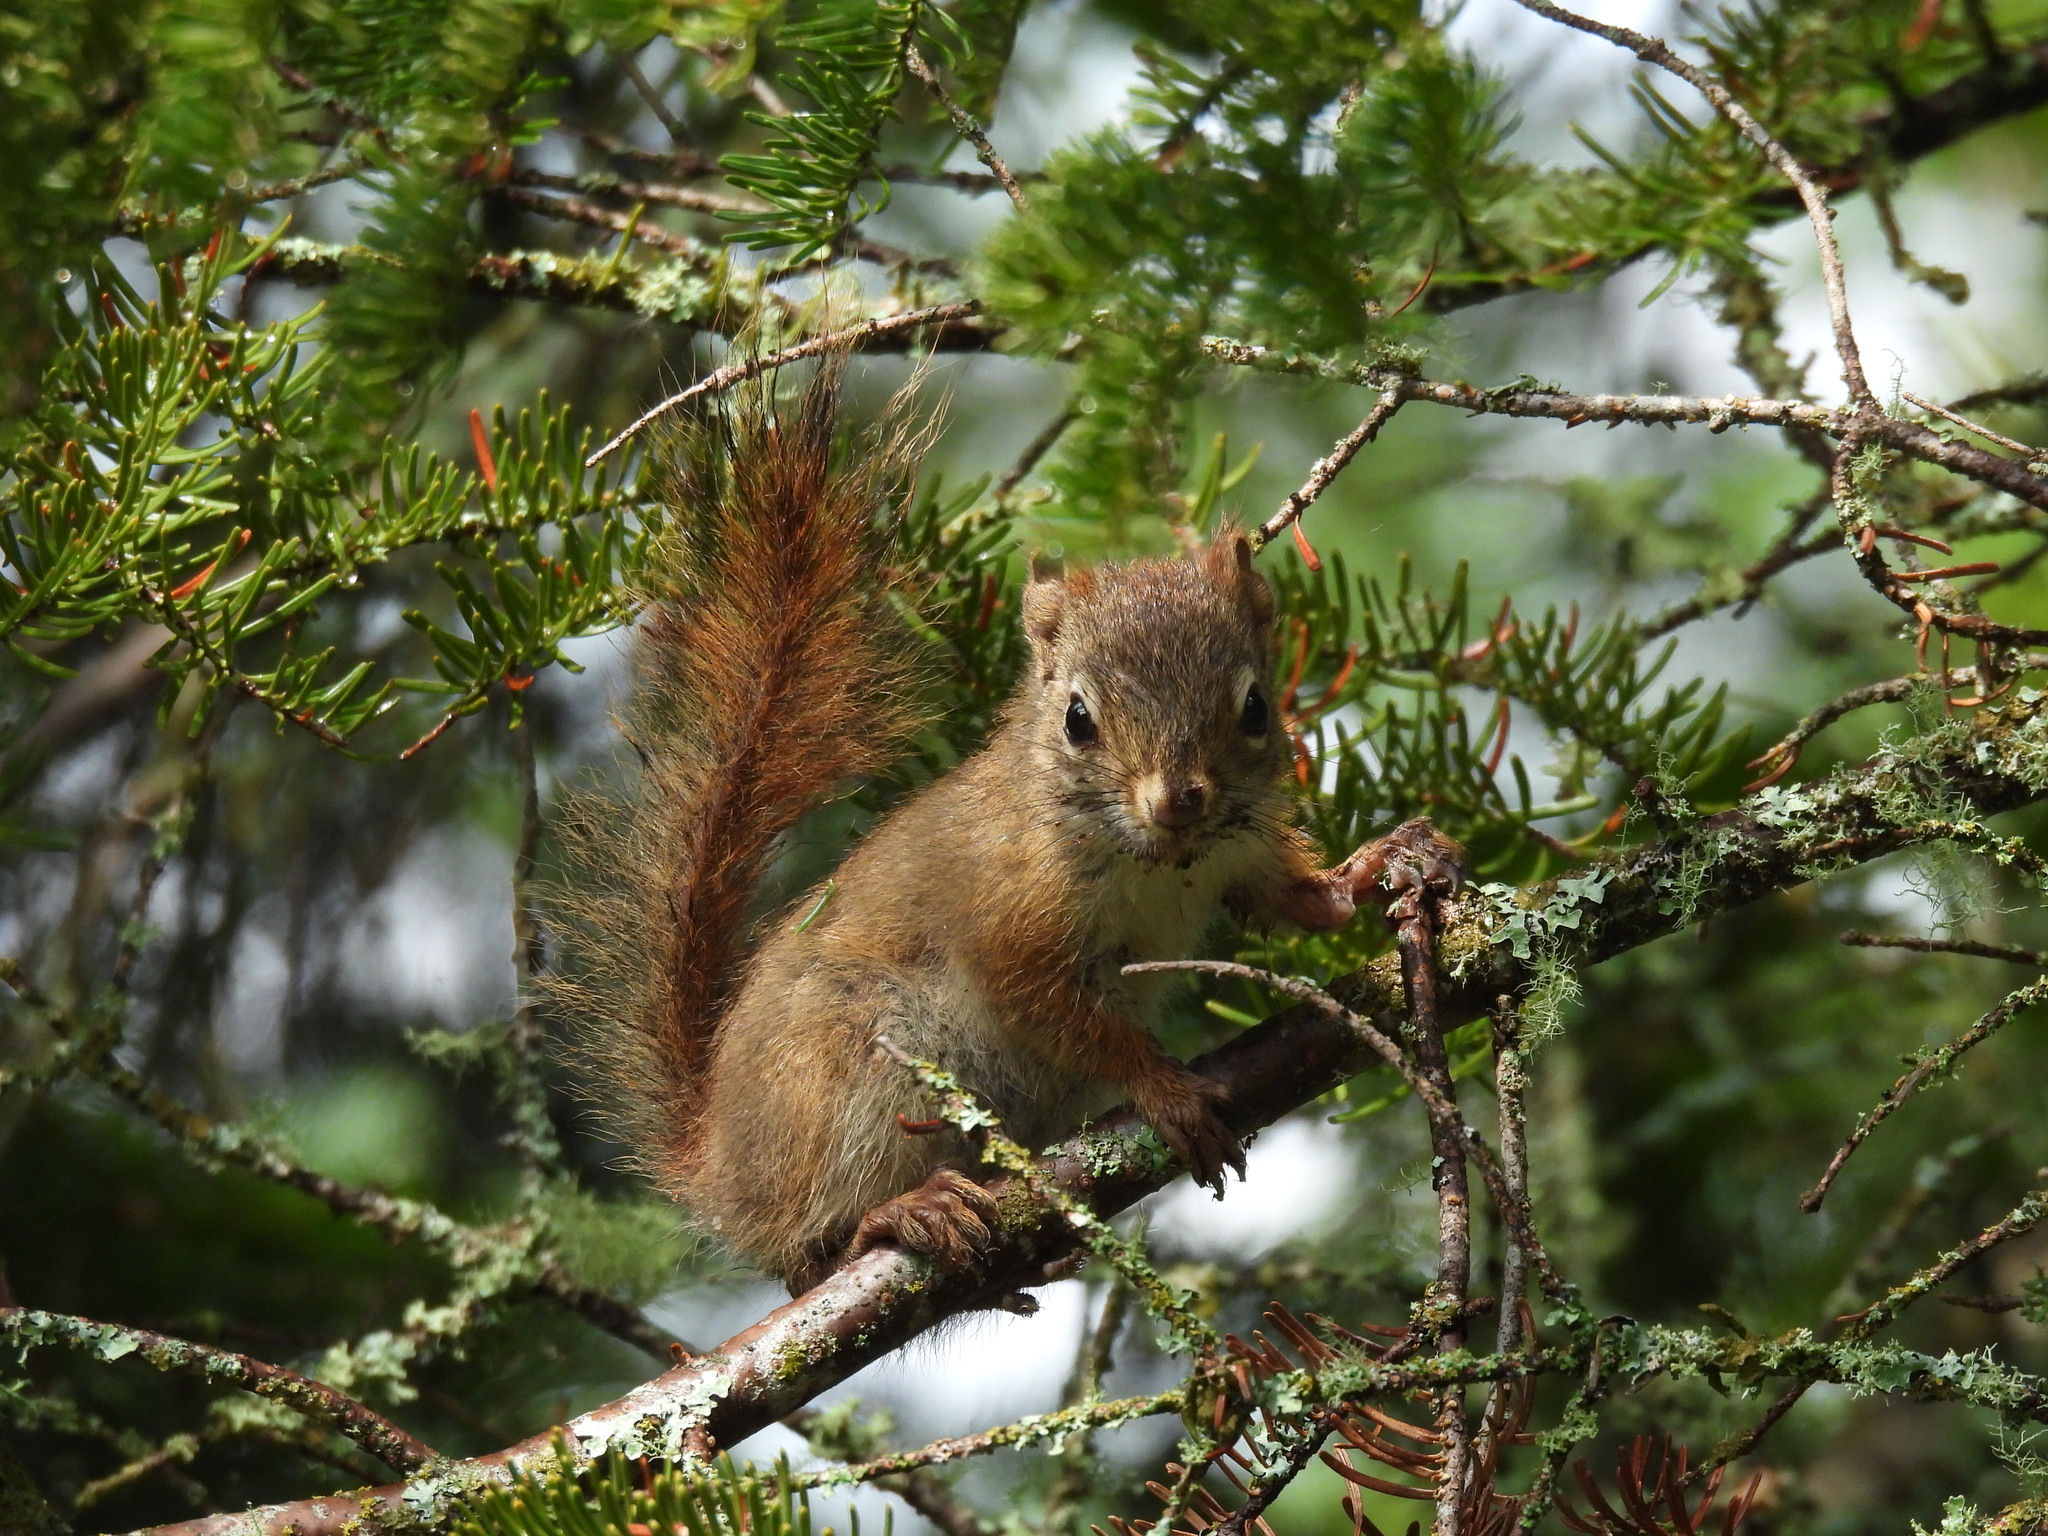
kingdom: Animalia
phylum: Chordata
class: Mammalia
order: Rodentia
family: Sciuridae
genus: Tamiasciurus
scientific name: Tamiasciurus hudsonicus
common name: Red squirrel
